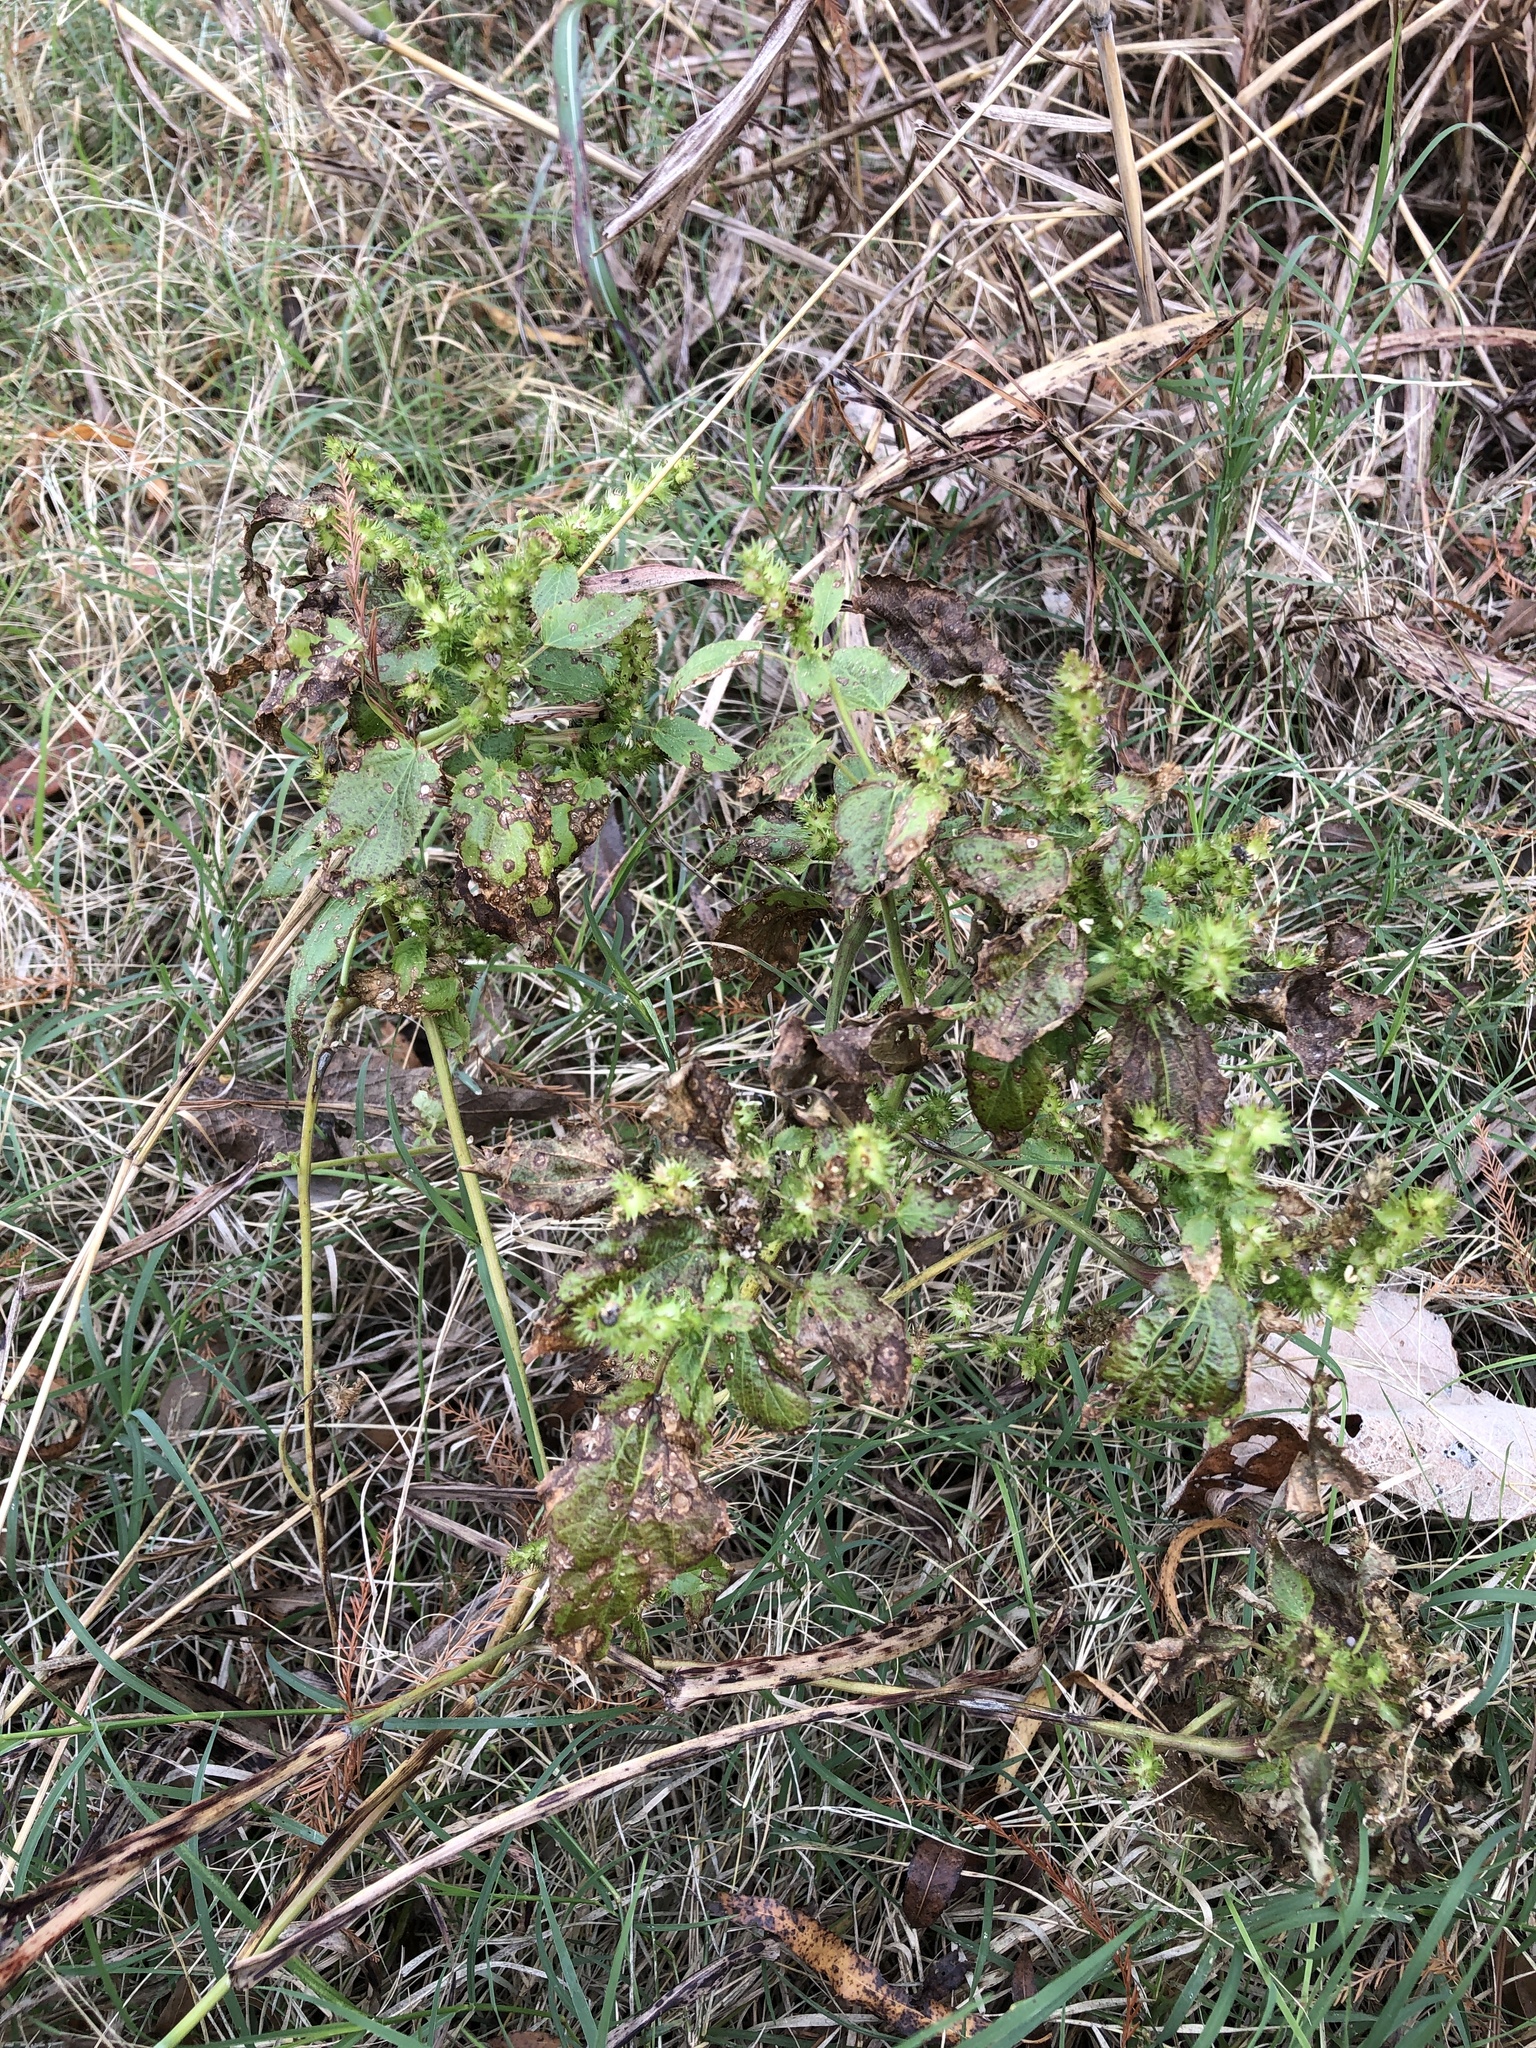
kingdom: Plantae
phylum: Tracheophyta
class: Magnoliopsida
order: Malpighiales
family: Euphorbiaceae
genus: Acalypha
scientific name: Acalypha ostryifolia
